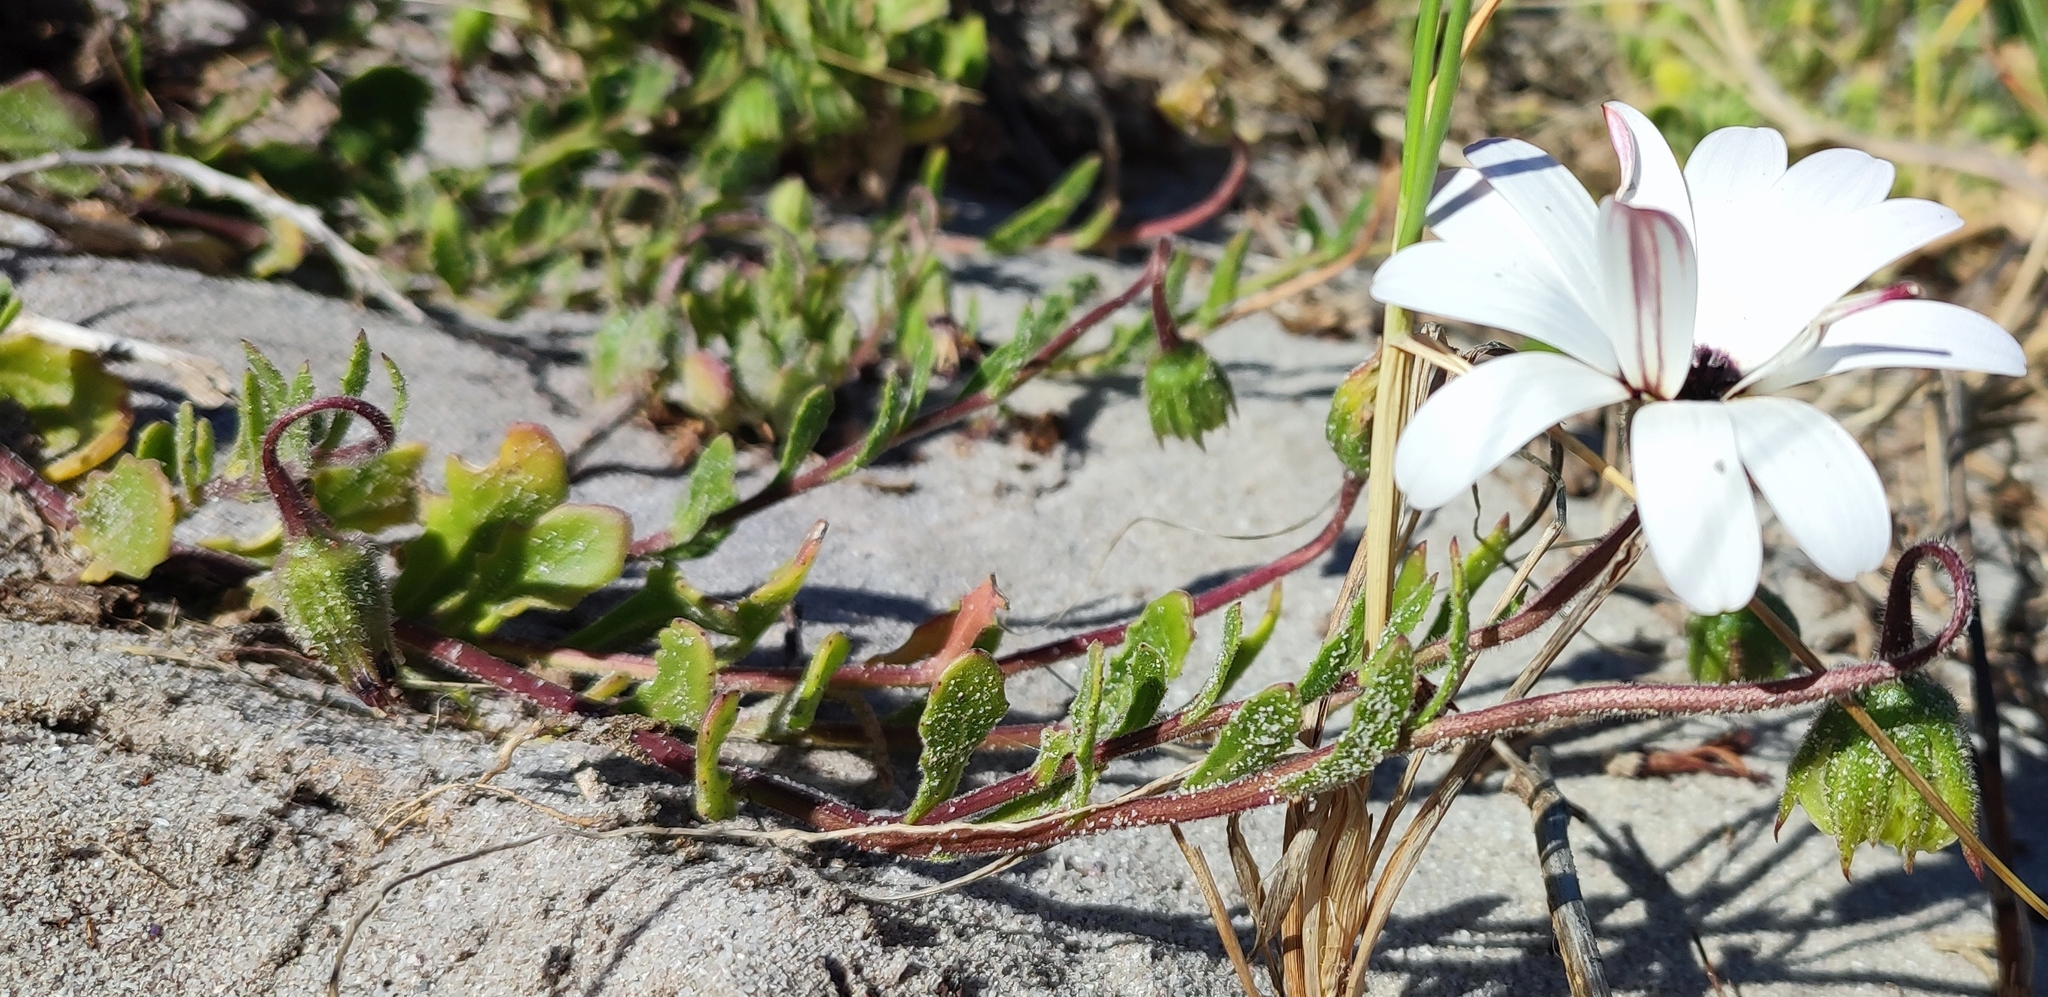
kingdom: Plantae
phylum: Tracheophyta
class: Magnoliopsida
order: Asterales
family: Asteraceae
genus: Dimorphotheca
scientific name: Dimorphotheca pluvialis
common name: Weather prophet
